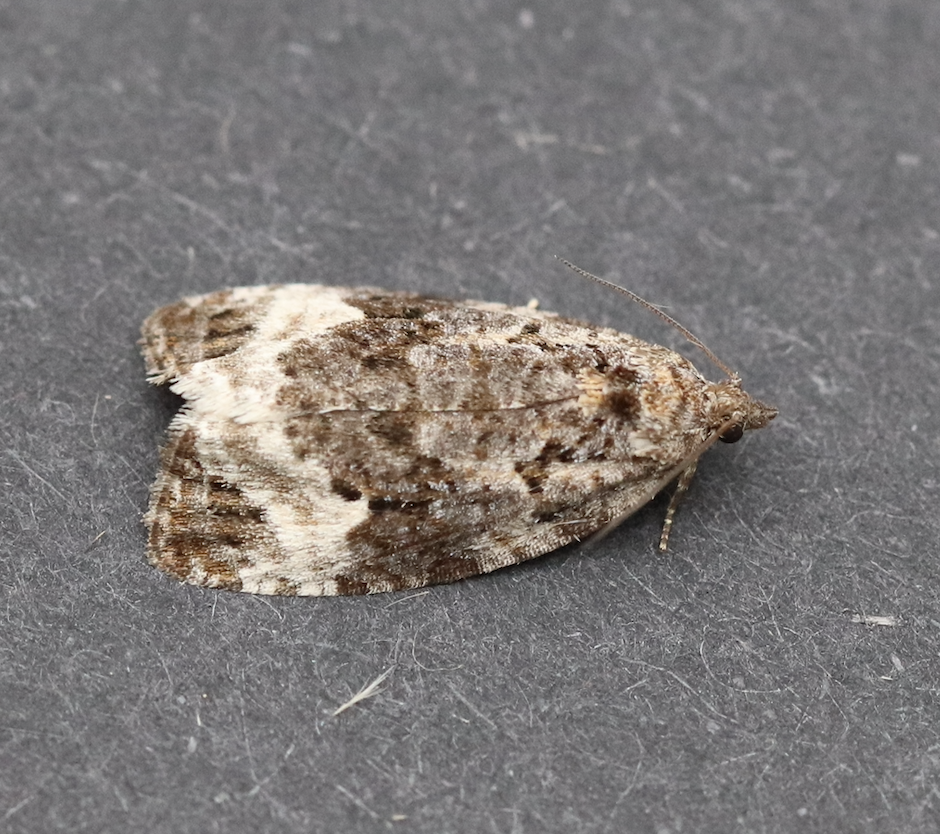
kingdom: Animalia
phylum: Arthropoda
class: Insecta
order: Lepidoptera
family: Tortricidae
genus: Apotomis
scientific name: Apotomis capreana
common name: Sallow marble
